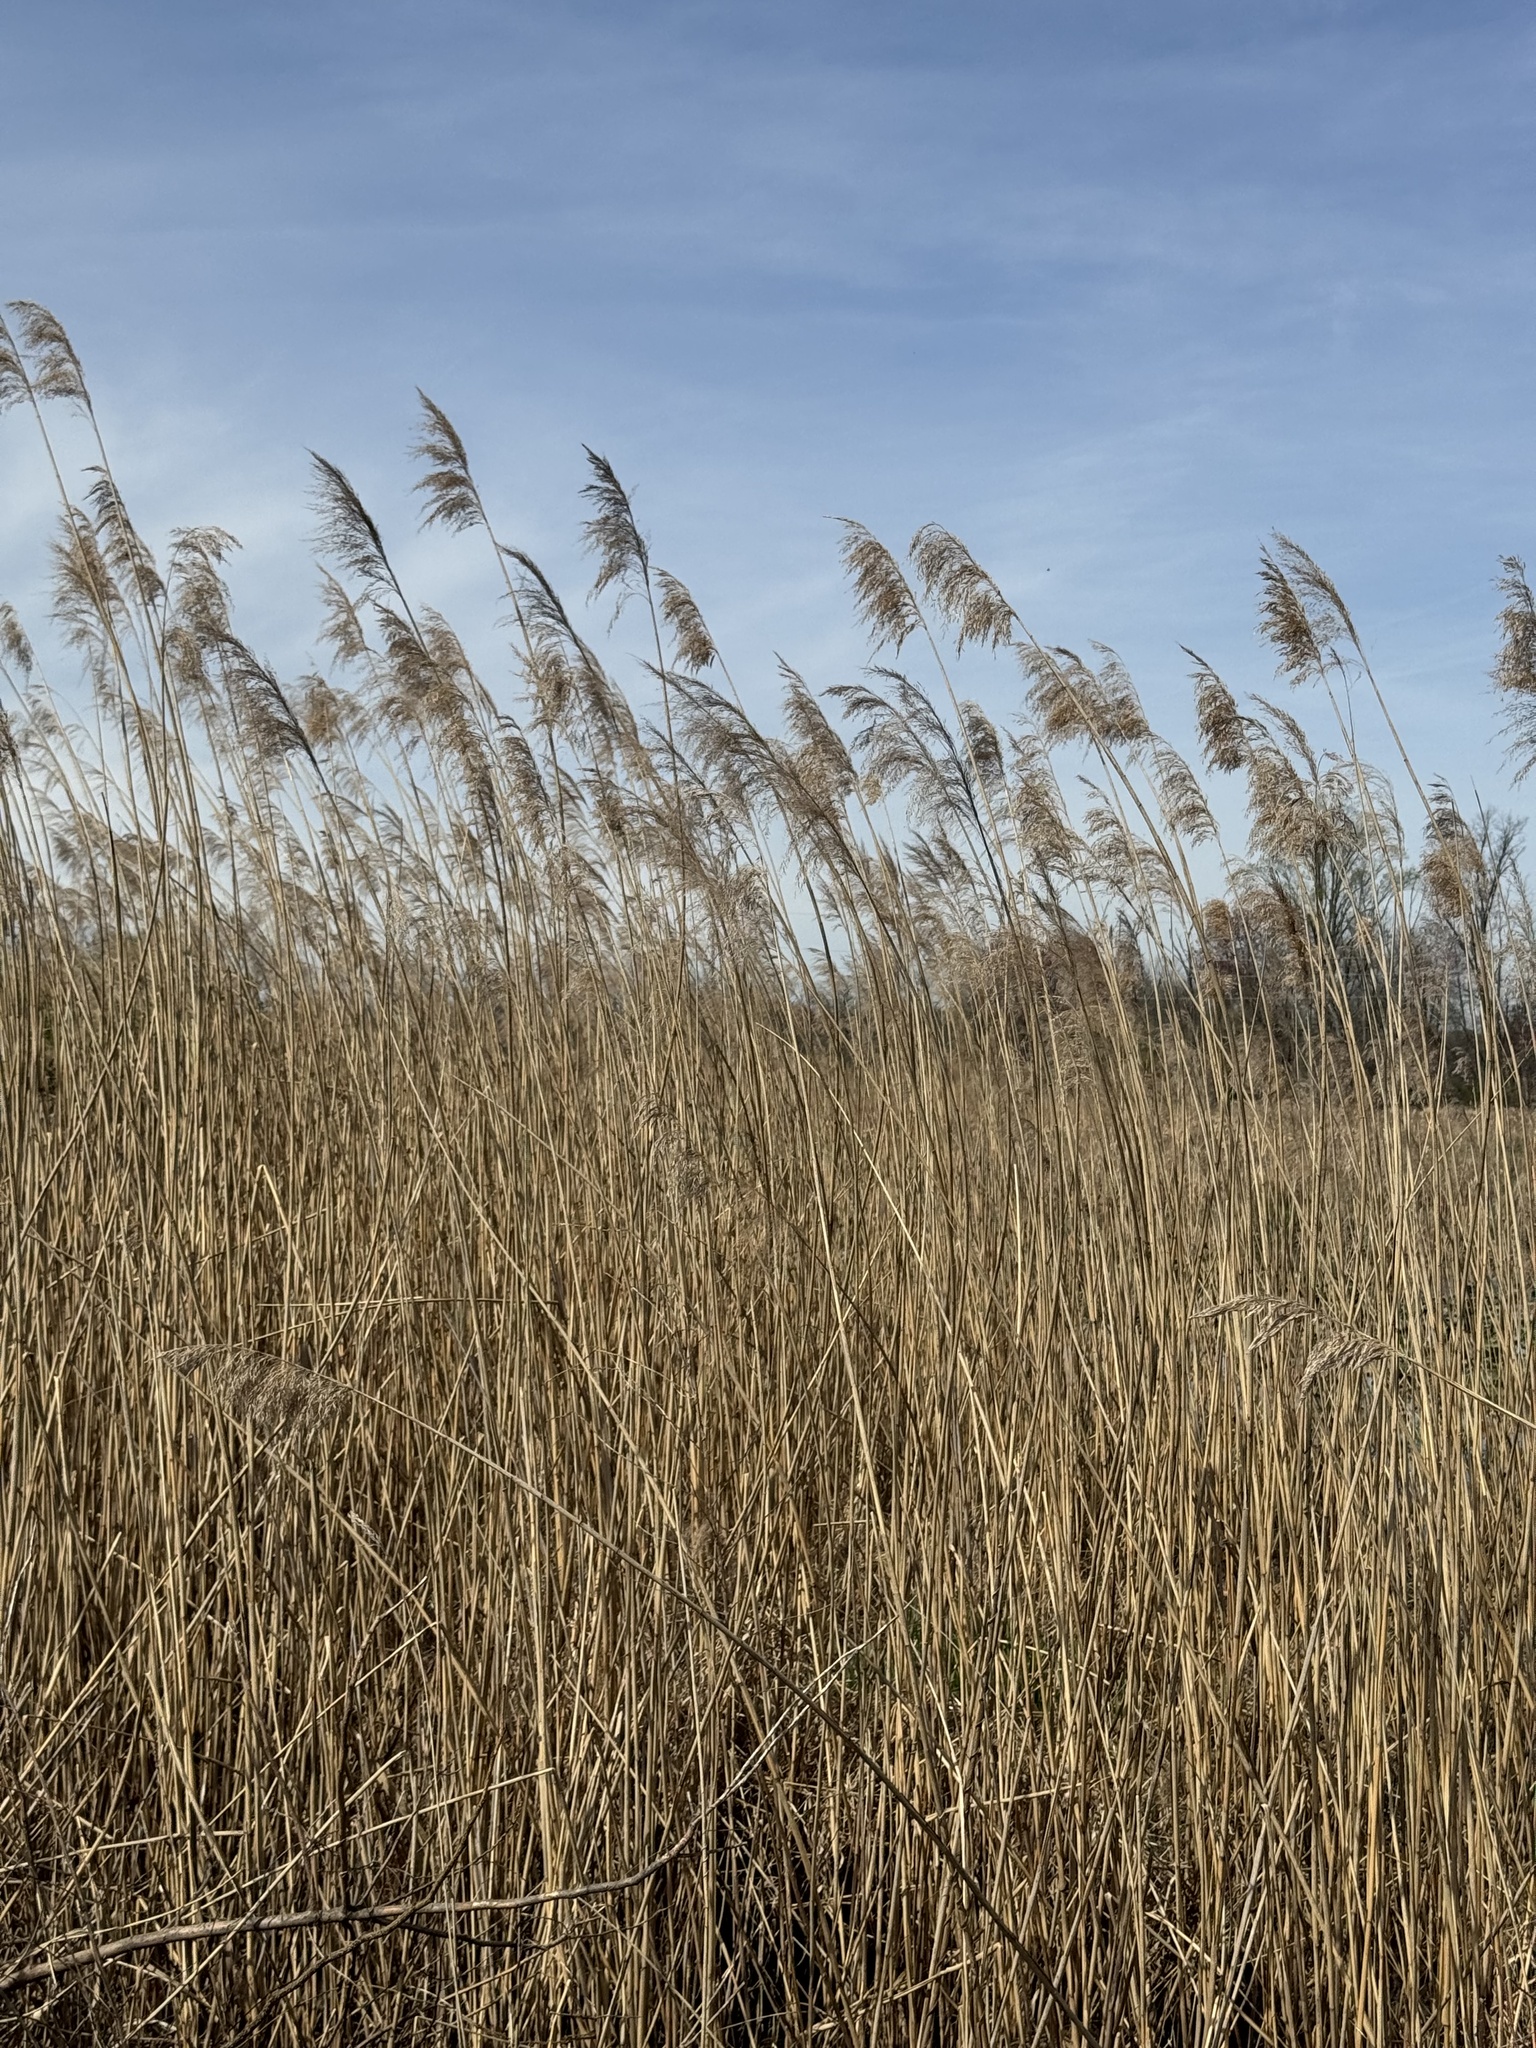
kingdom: Plantae
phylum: Tracheophyta
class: Liliopsida
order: Poales
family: Poaceae
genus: Phragmites
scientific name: Phragmites australis
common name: Common reed
